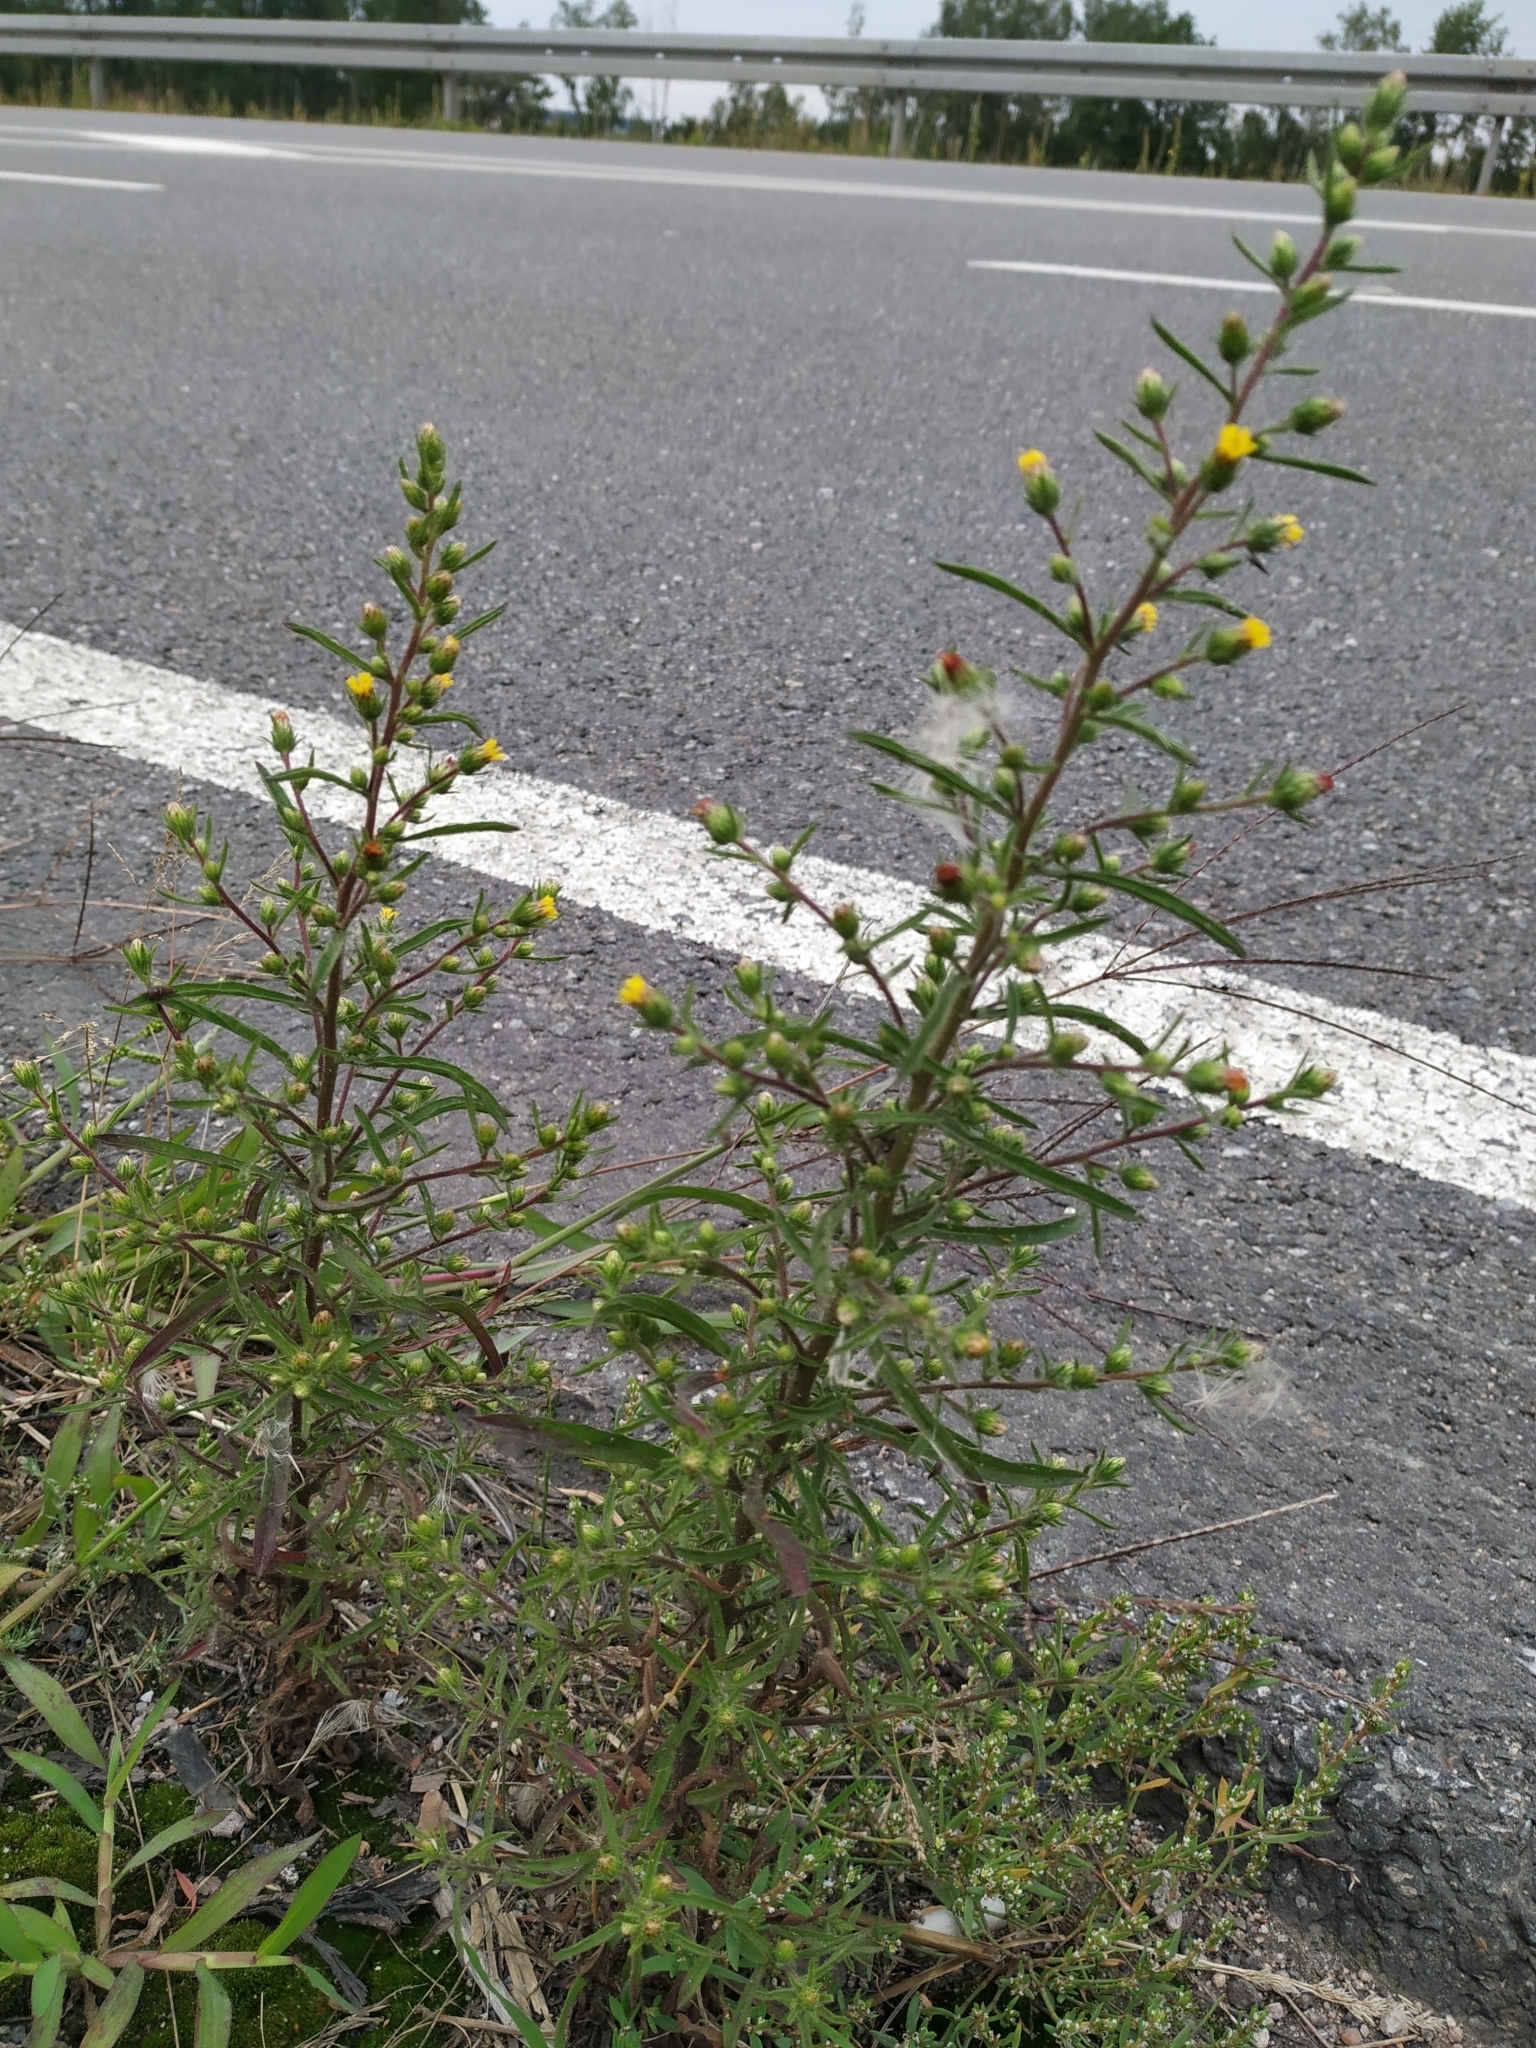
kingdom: Plantae
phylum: Tracheophyta
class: Magnoliopsida
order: Asterales
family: Asteraceae
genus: Dittrichia
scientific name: Dittrichia graveolens
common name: Stinking fleabane
